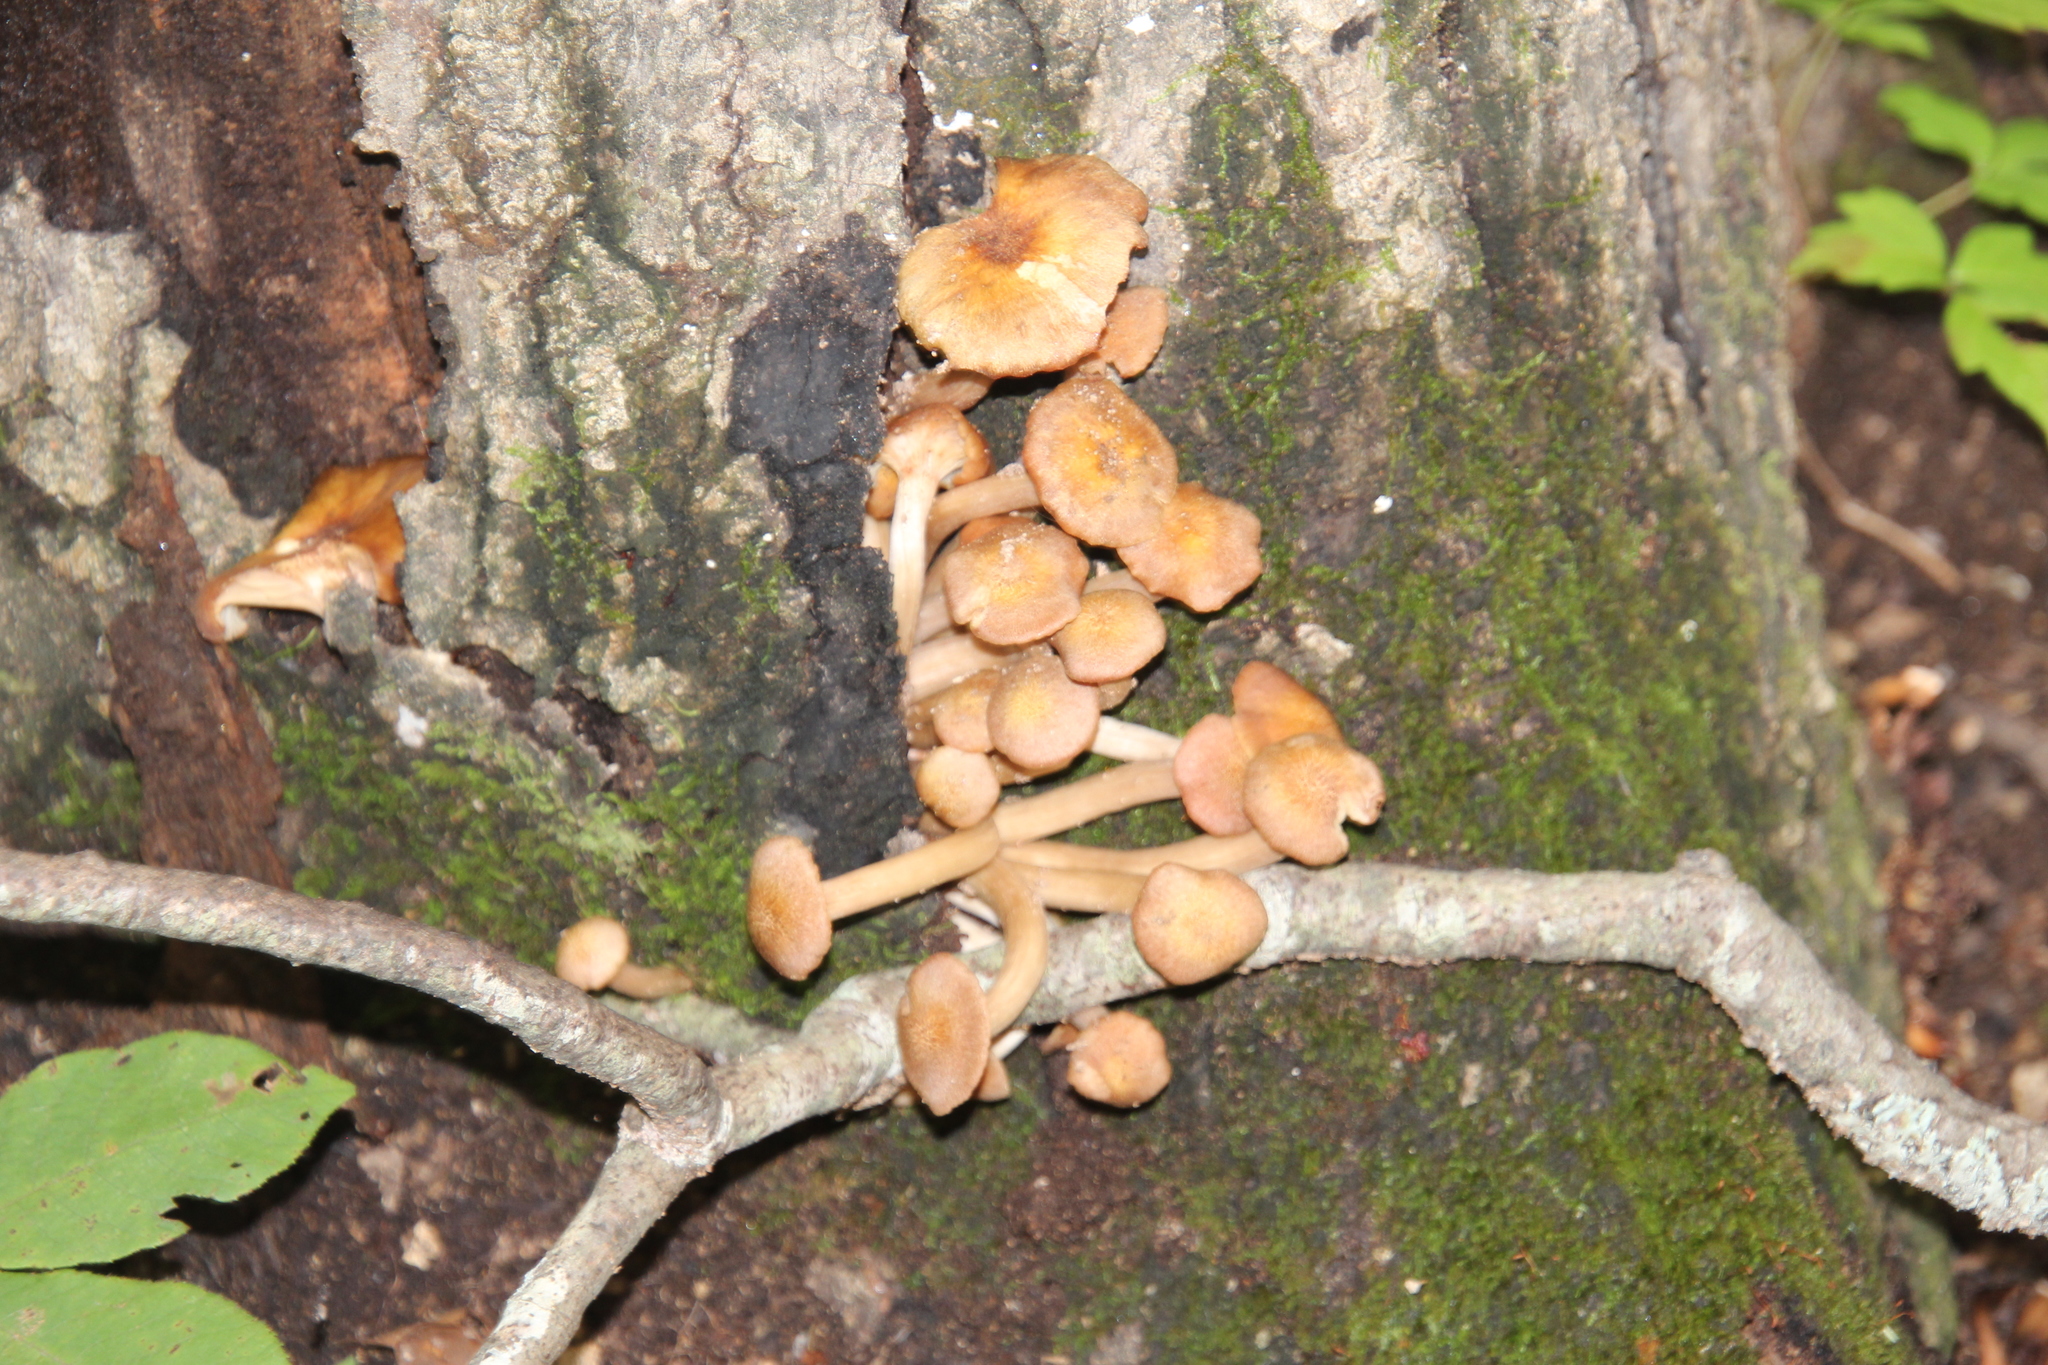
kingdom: Fungi
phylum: Basidiomycota
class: Agaricomycetes
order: Agaricales
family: Physalacriaceae
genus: Desarmillaria
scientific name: Desarmillaria caespitosa
